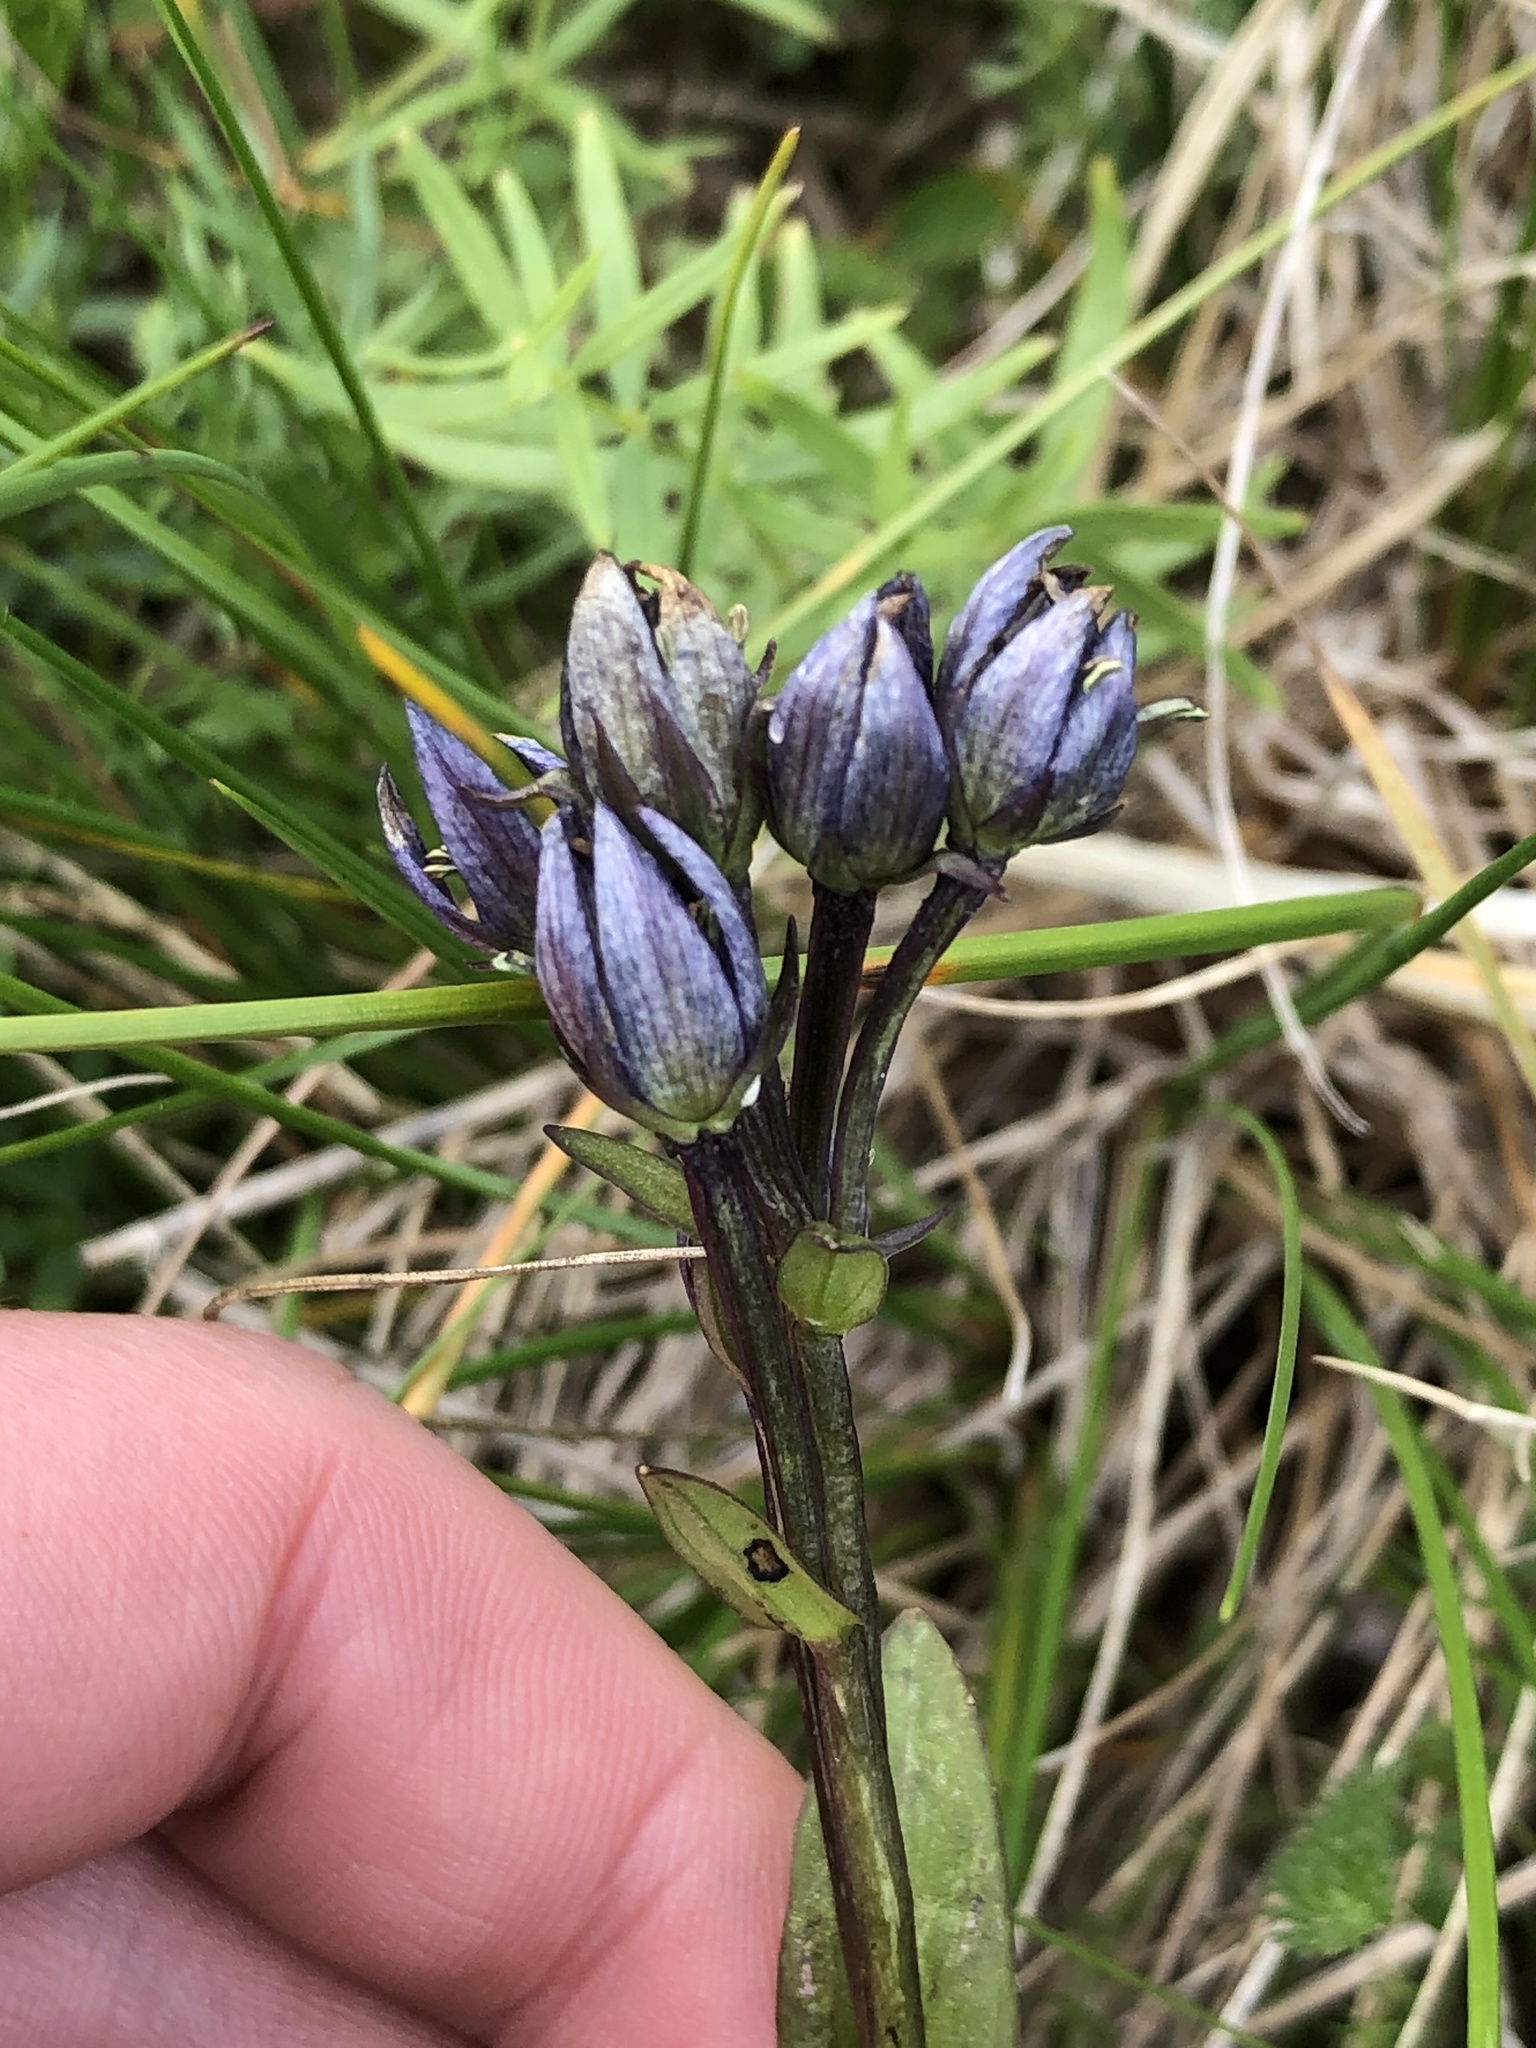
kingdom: Plantae
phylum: Tracheophyta
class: Magnoliopsida
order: Gentianales
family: Gentianaceae
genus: Swertia
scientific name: Swertia perennis
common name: Alpine bog swertia
